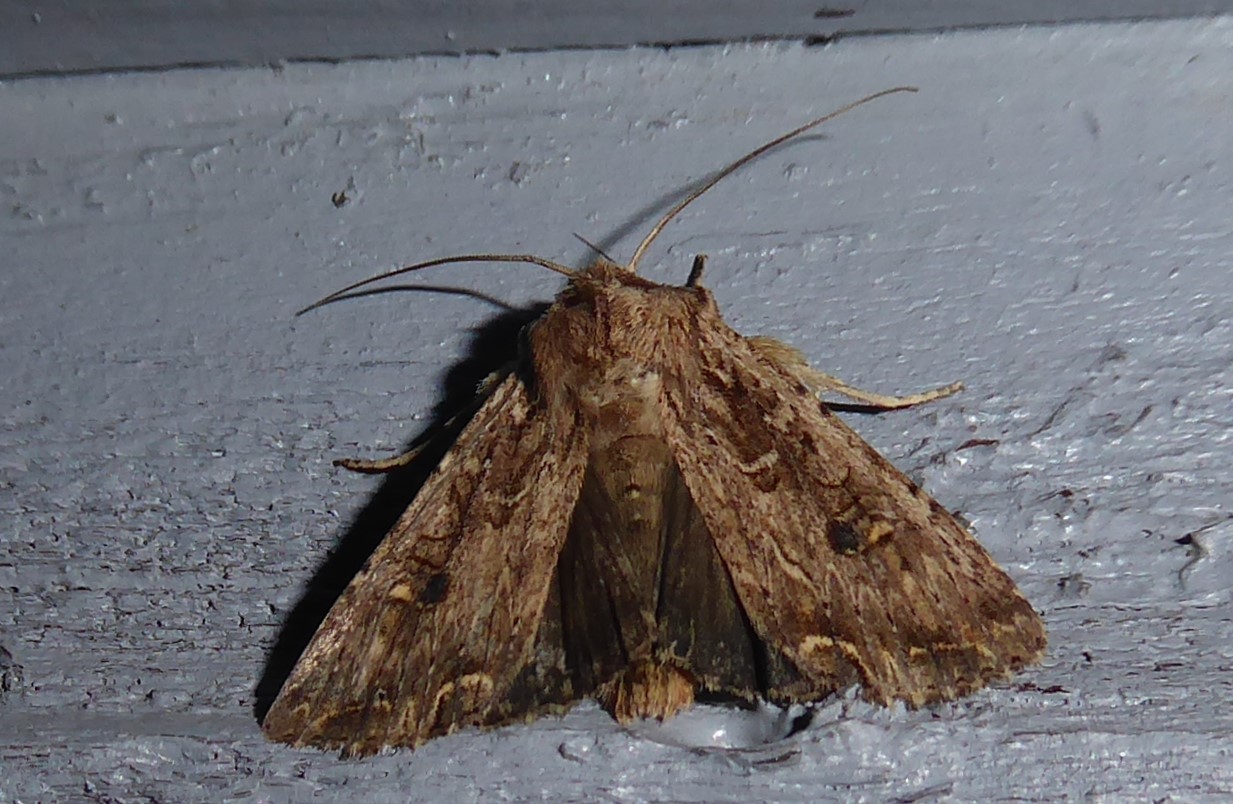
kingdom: Animalia
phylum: Arthropoda
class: Insecta
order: Lepidoptera
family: Noctuidae
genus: Ichneutica
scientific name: Ichneutica lignana
